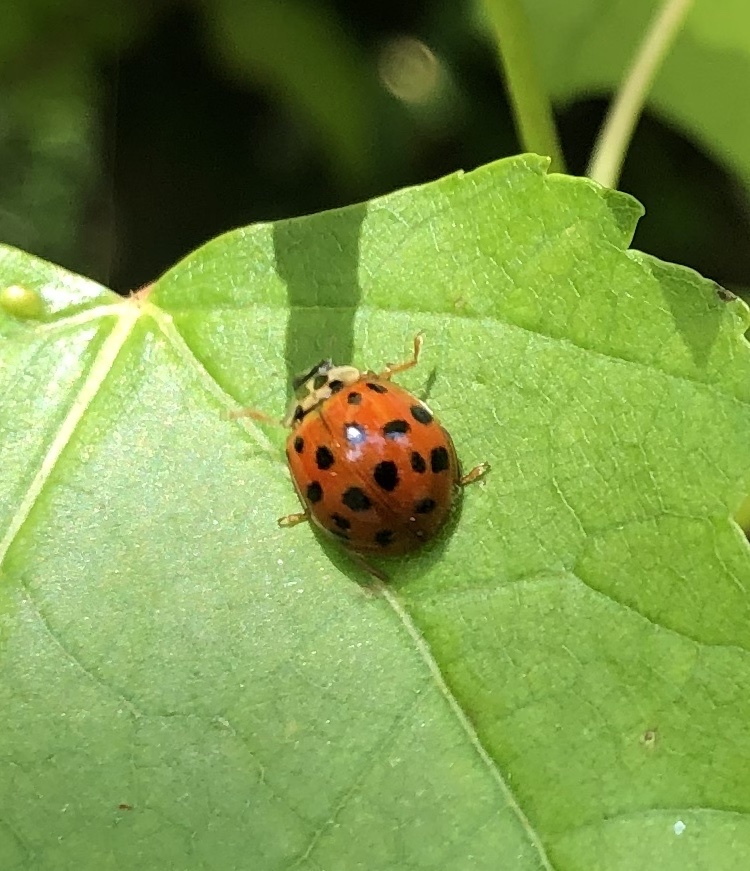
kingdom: Animalia
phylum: Arthropoda
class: Insecta
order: Coleoptera
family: Coccinellidae
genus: Harmonia
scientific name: Harmonia axyridis
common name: Harlequin ladybird
